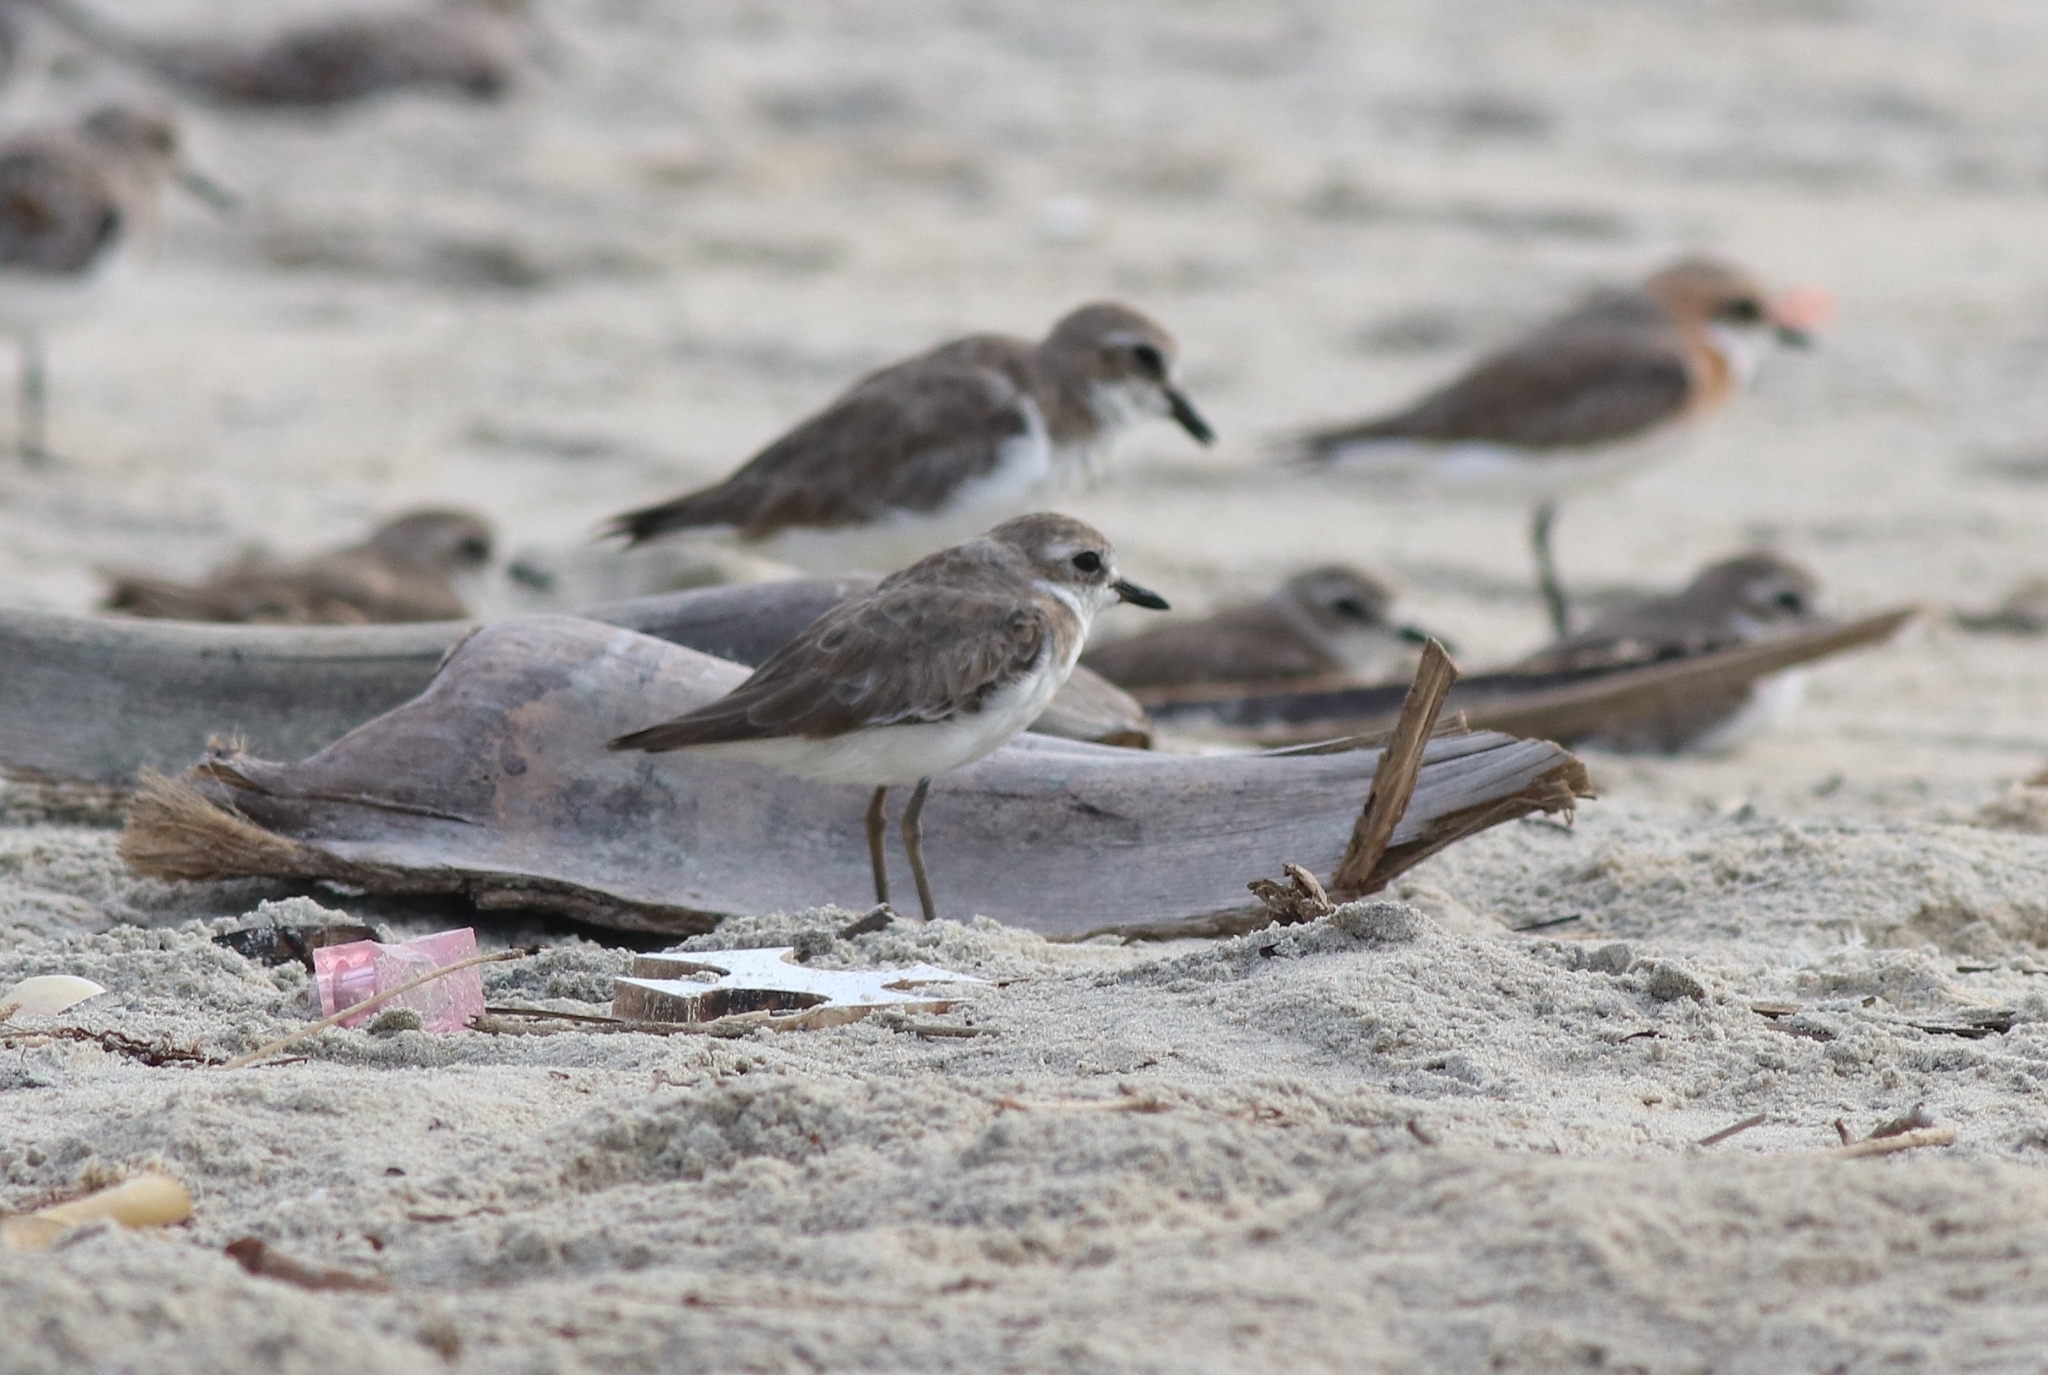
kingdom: Animalia
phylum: Chordata
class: Aves
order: Charadriiformes
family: Charadriidae
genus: Anarhynchus
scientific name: Anarhynchus
